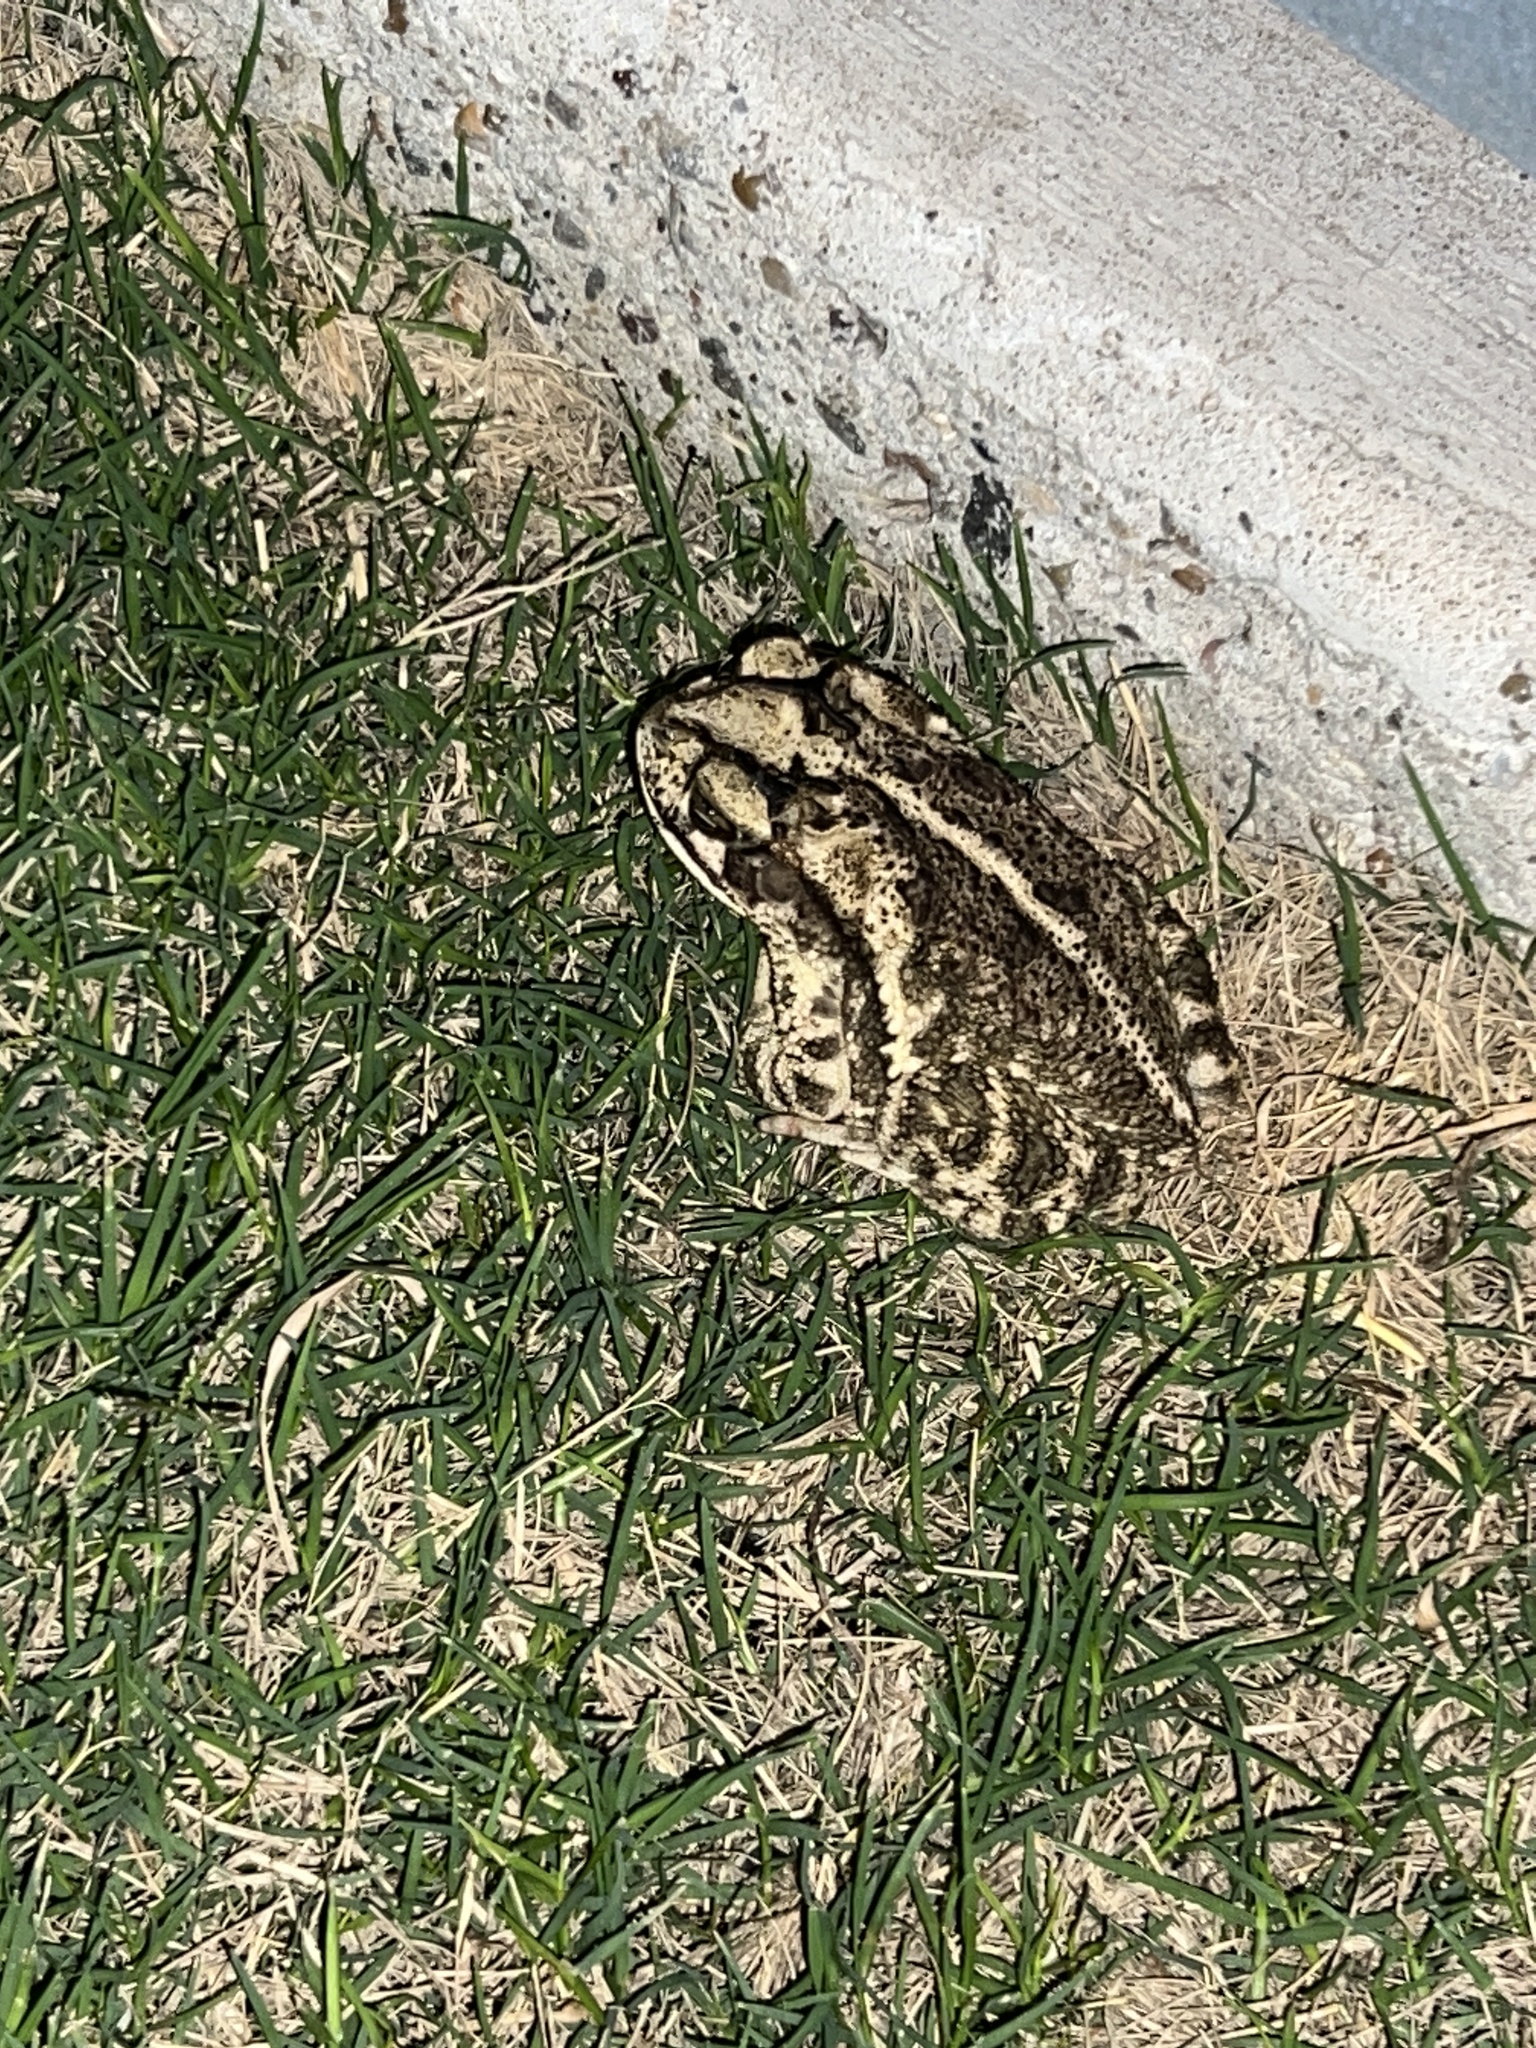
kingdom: Animalia
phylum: Chordata
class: Amphibia
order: Anura
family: Bufonidae
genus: Incilius
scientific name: Incilius nebulifer
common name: Gulf coast toad
